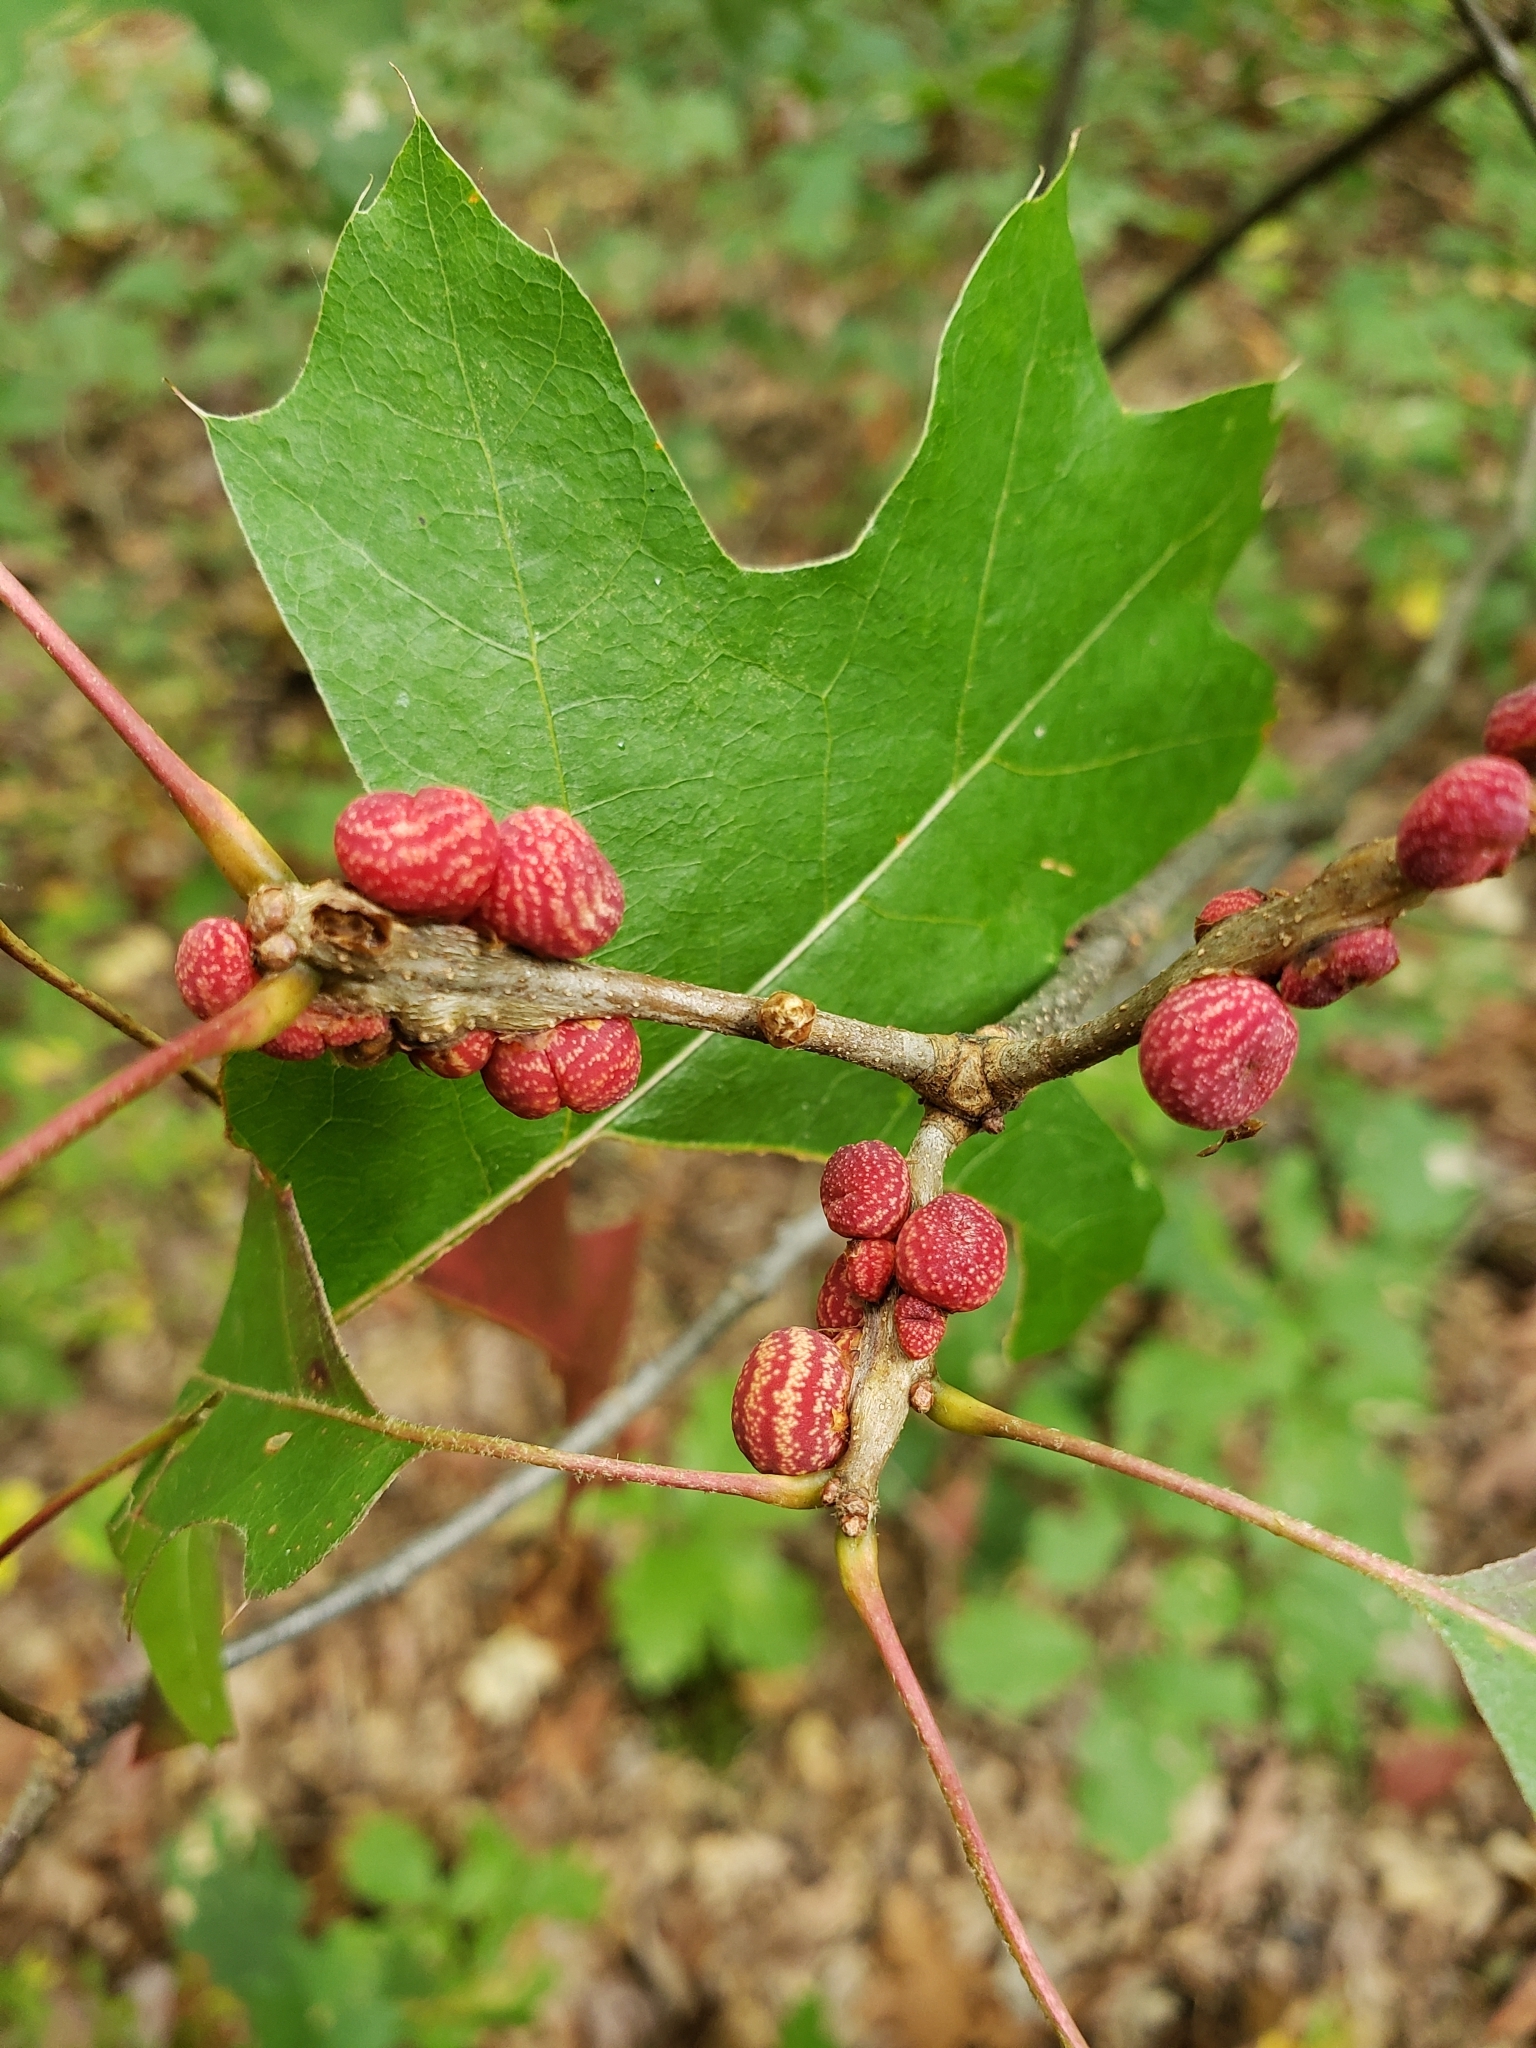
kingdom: Animalia
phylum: Arthropoda
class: Insecta
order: Hymenoptera
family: Cynipidae
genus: Kokkocynips
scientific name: Kokkocynips imbricariae
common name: Banded bullet gall wasp
